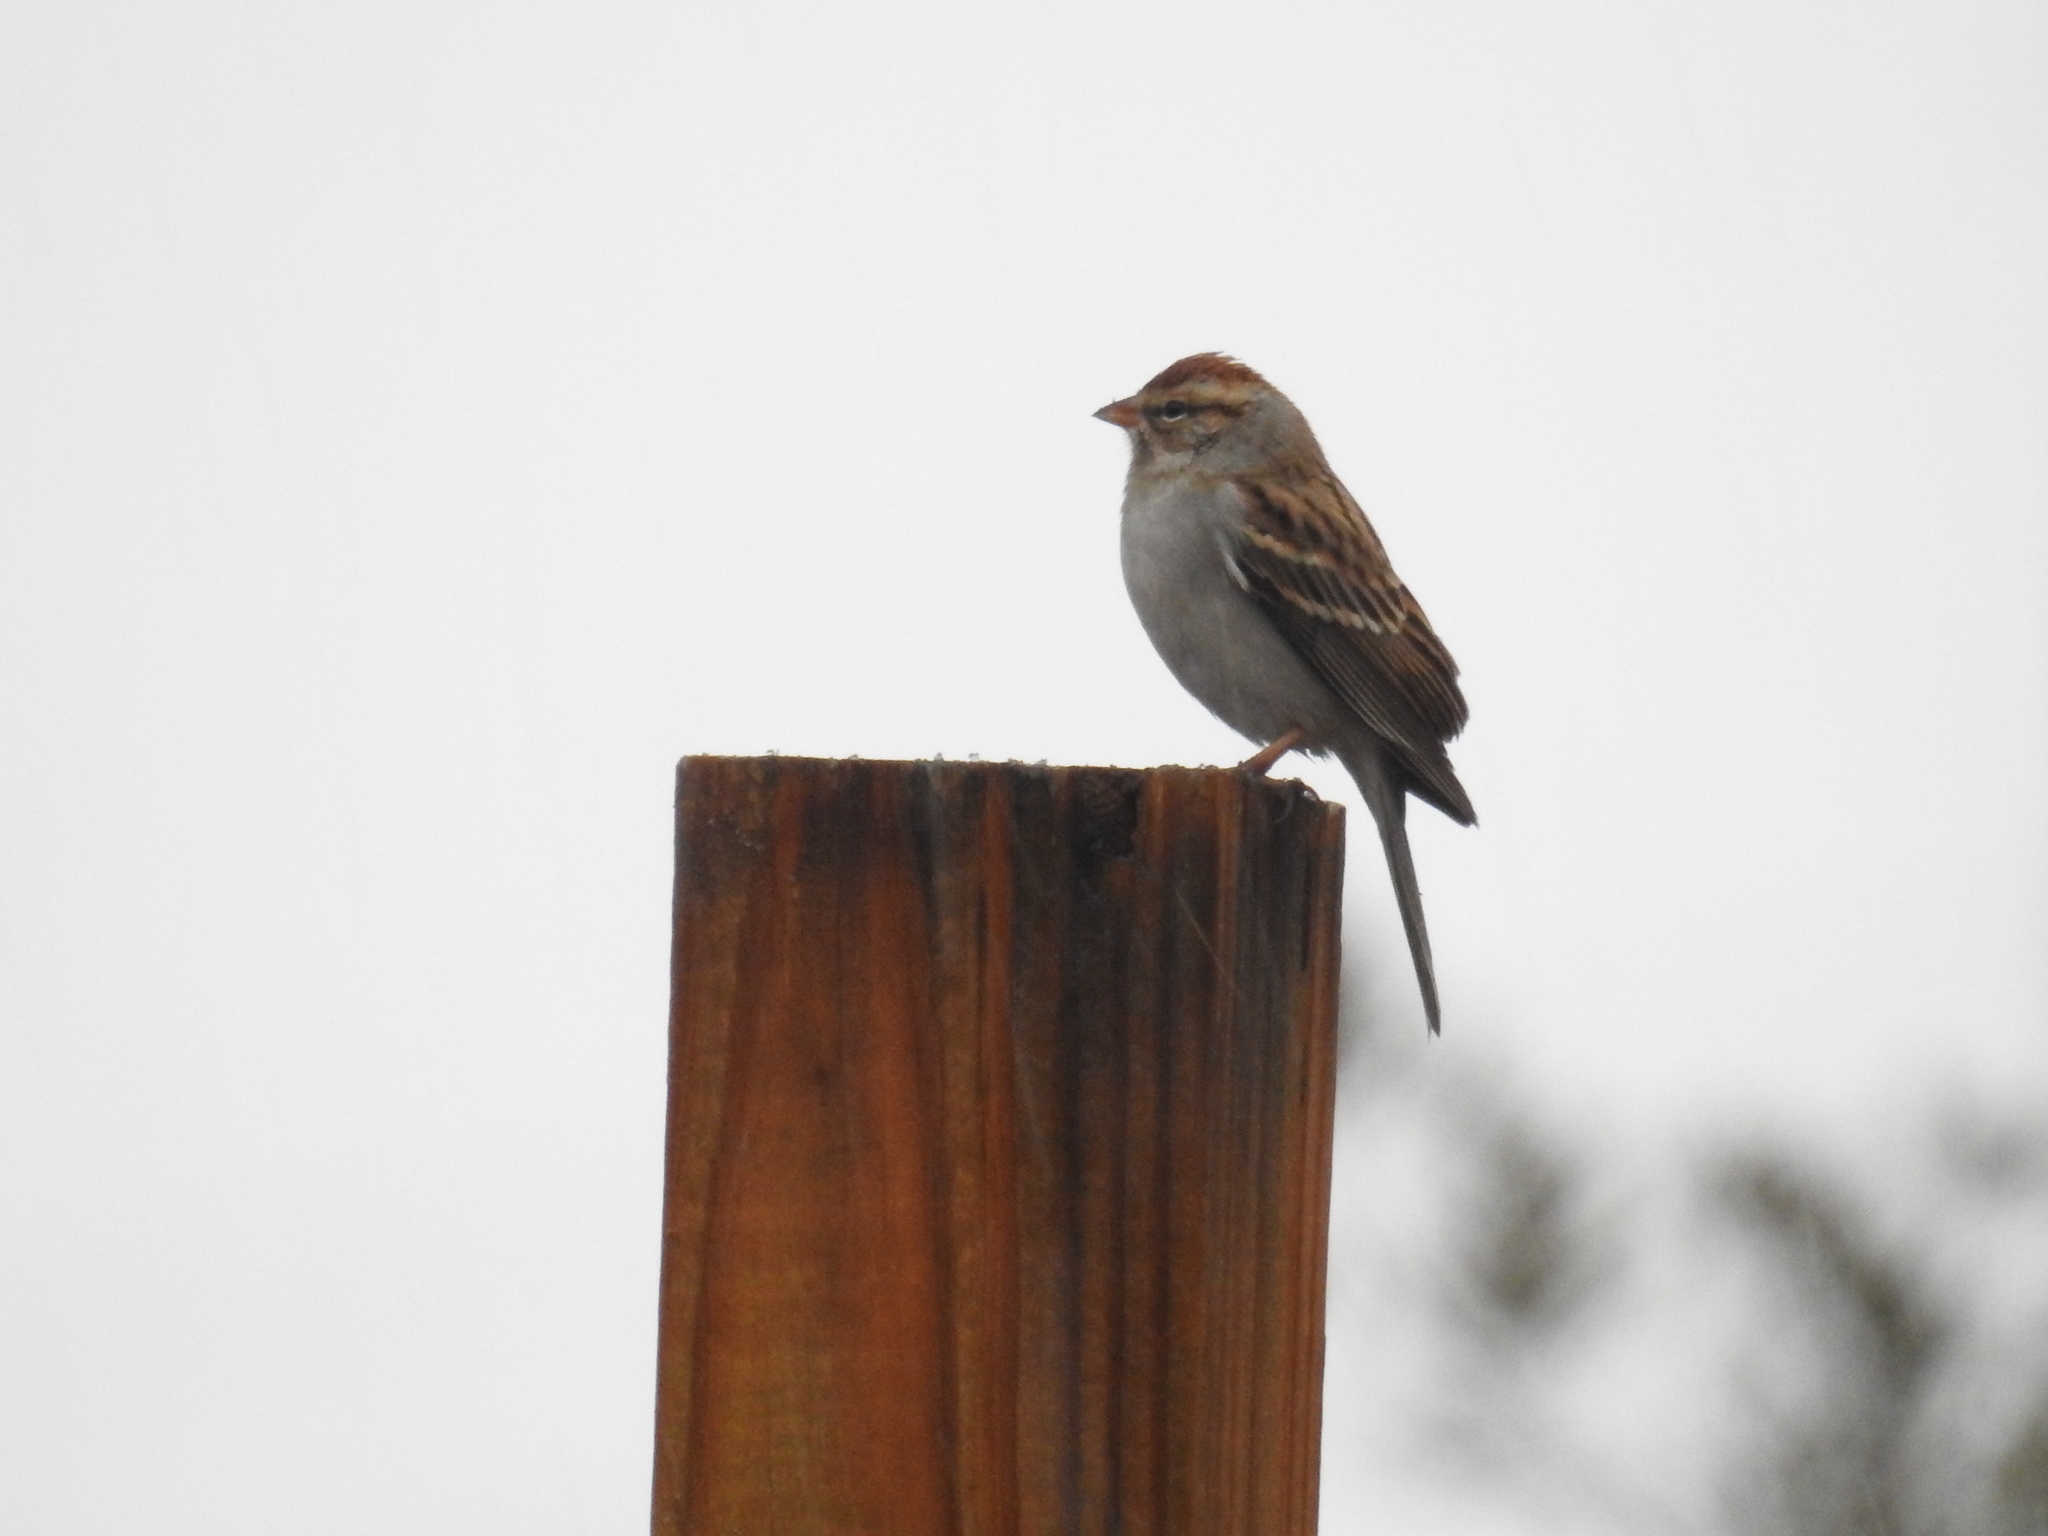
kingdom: Animalia
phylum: Chordata
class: Aves
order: Passeriformes
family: Passerellidae
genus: Spizella
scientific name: Spizella passerina
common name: Chipping sparrow
